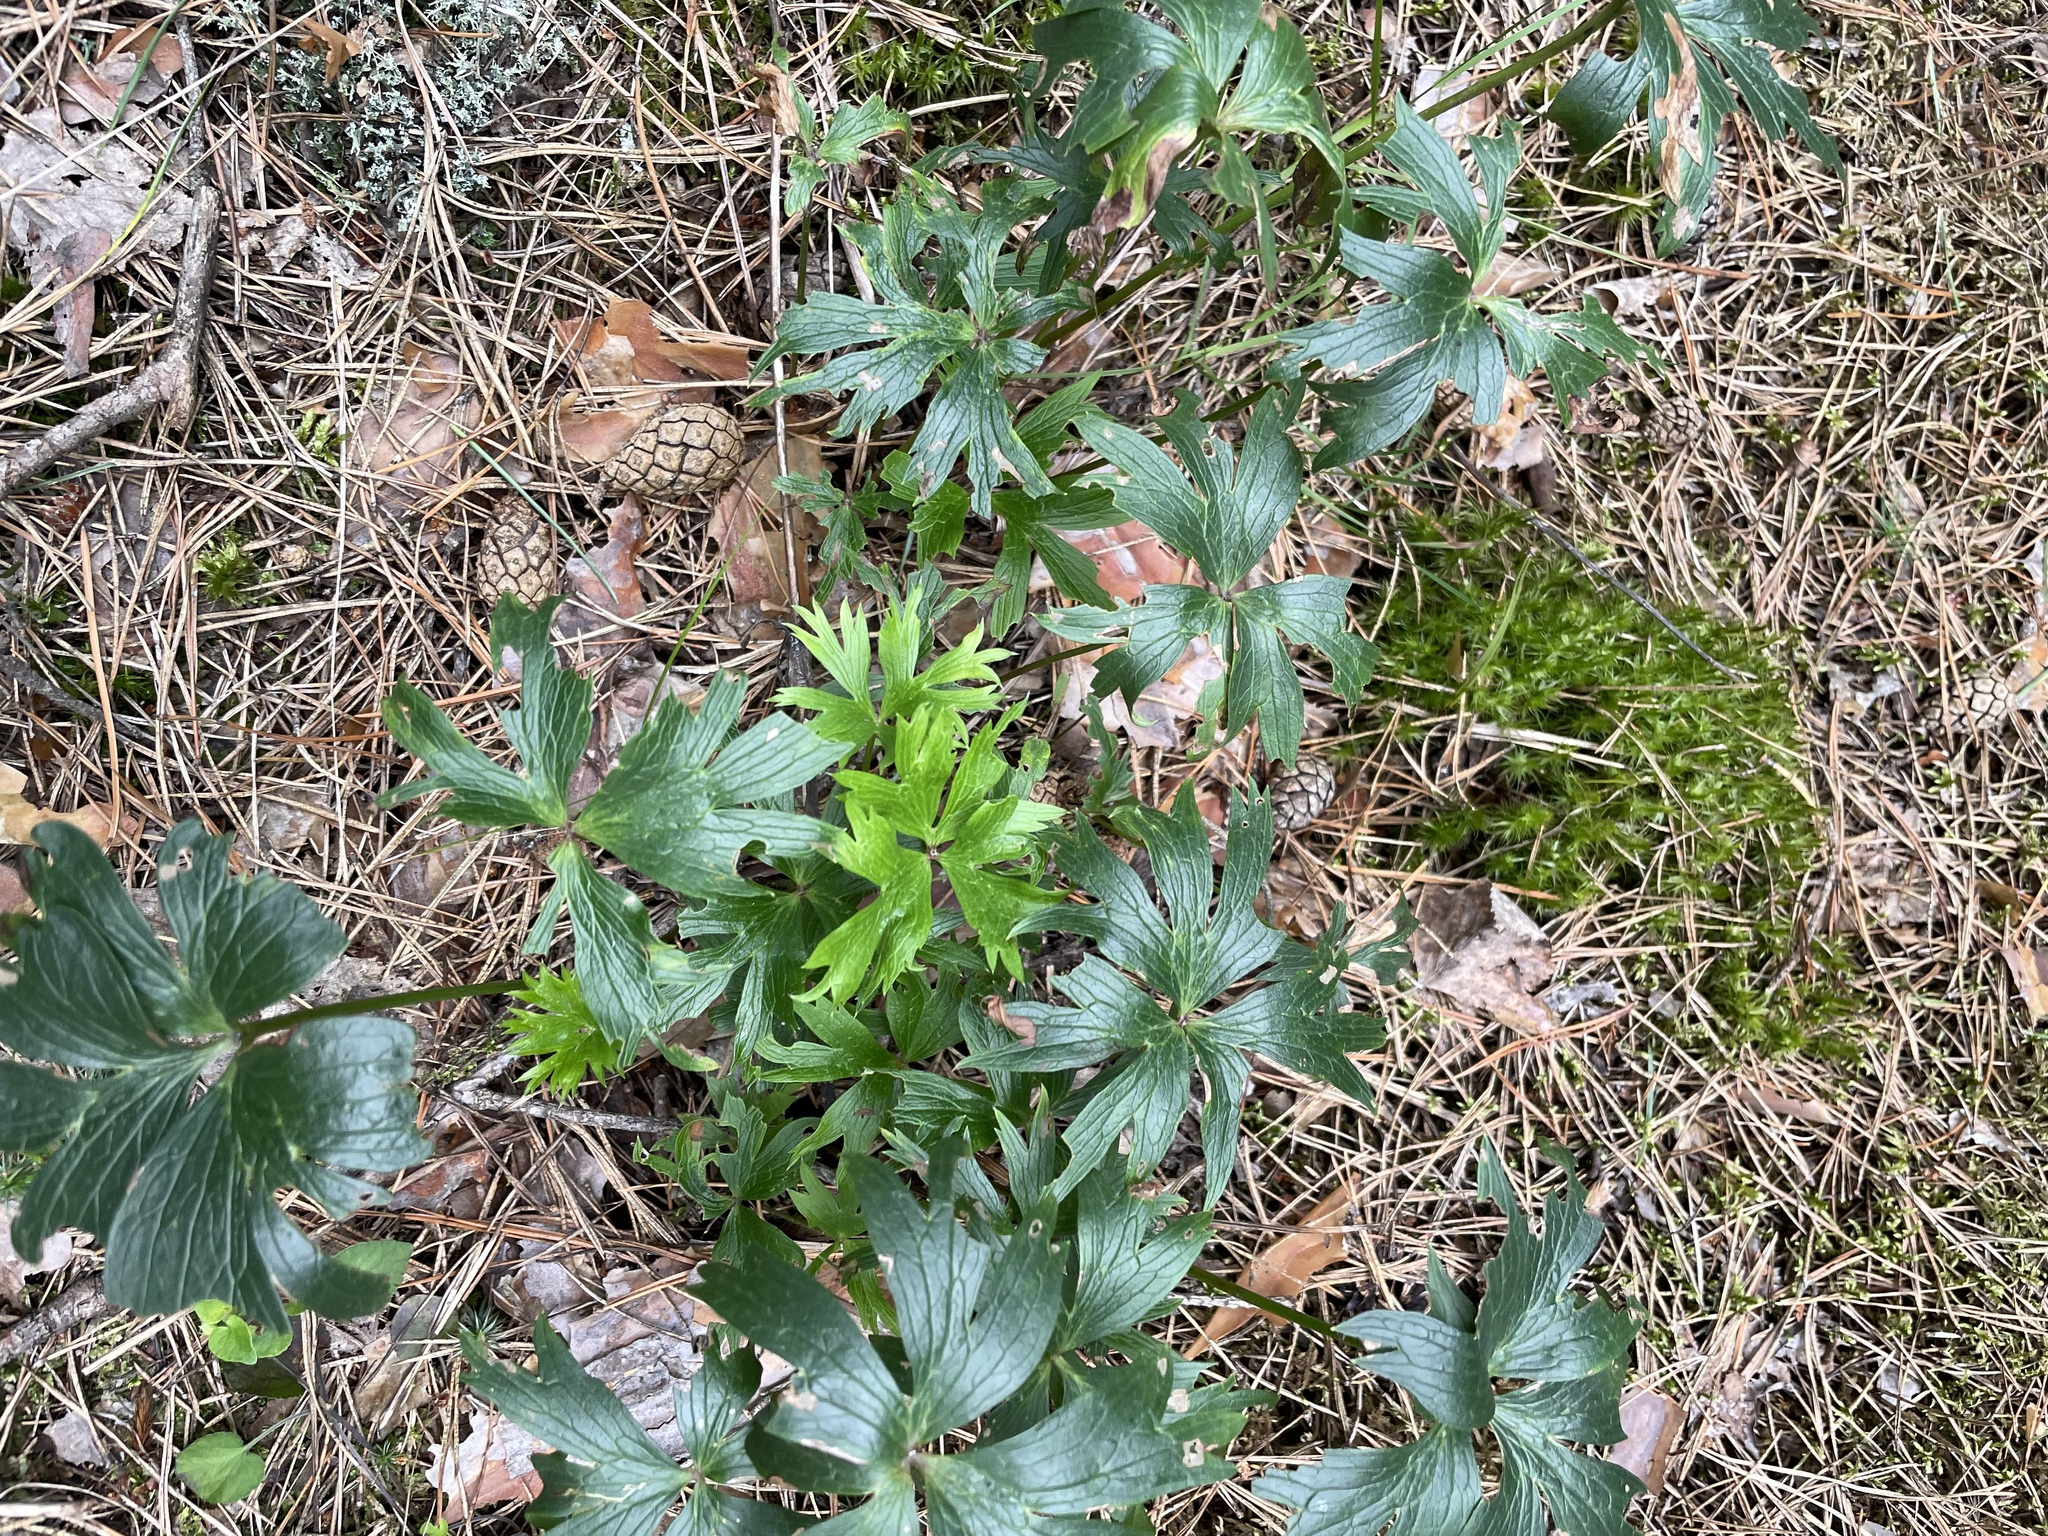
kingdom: Plantae
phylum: Tracheophyta
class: Magnoliopsida
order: Ranunculales
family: Ranunculaceae
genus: Pulsatilla
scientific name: Pulsatilla patens
